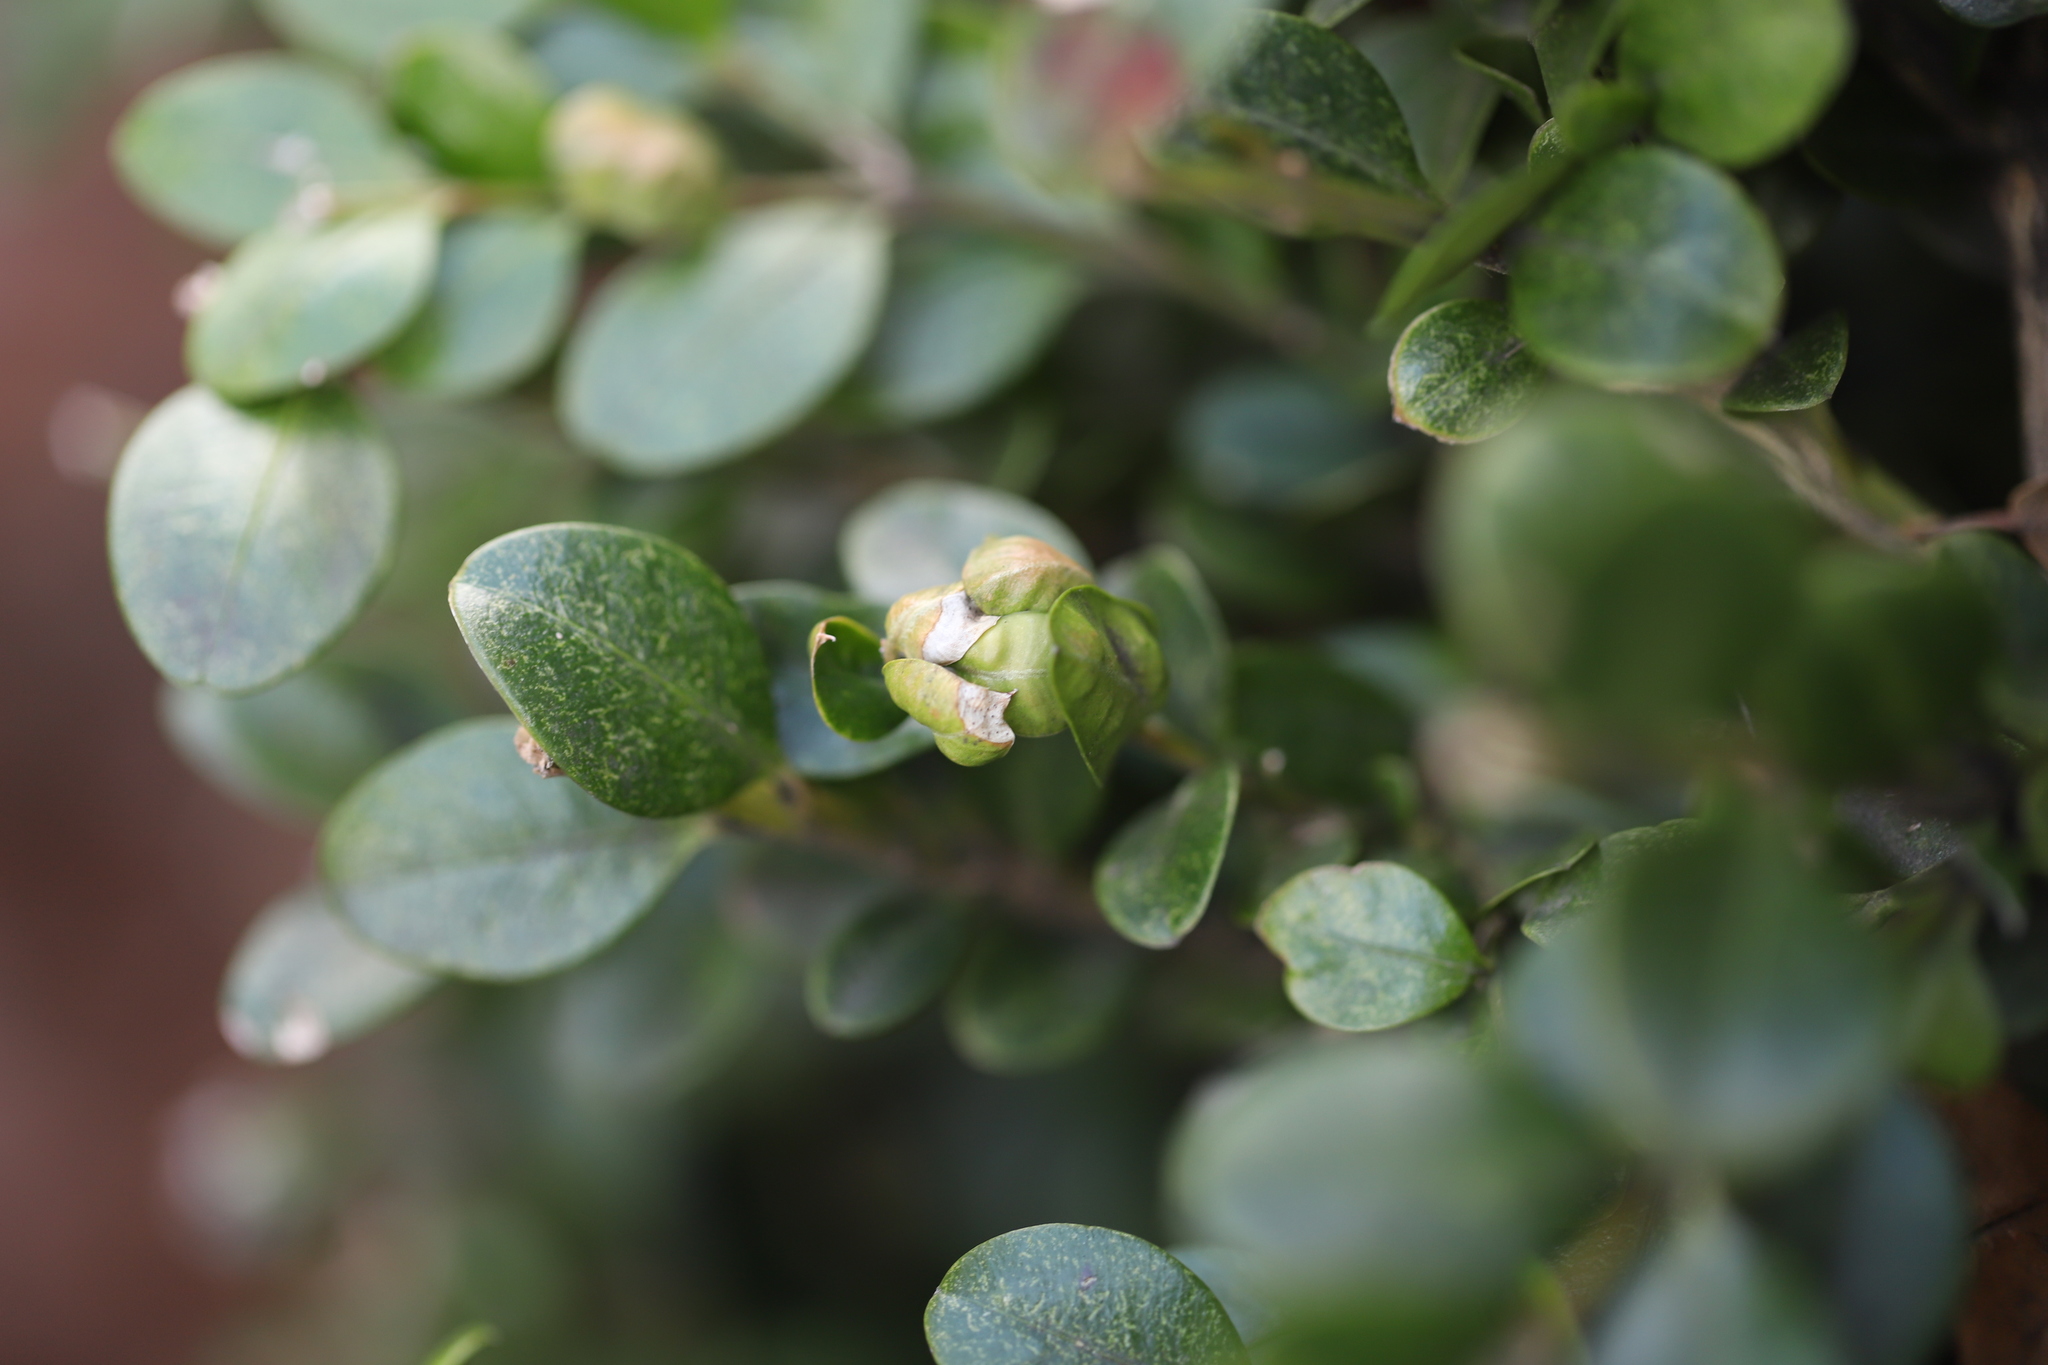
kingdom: Animalia
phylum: Arthropoda
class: Arachnida
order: Trombidiformes
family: Tetranychidae
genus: Eurytetranychus
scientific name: Eurytetranychus buxi
